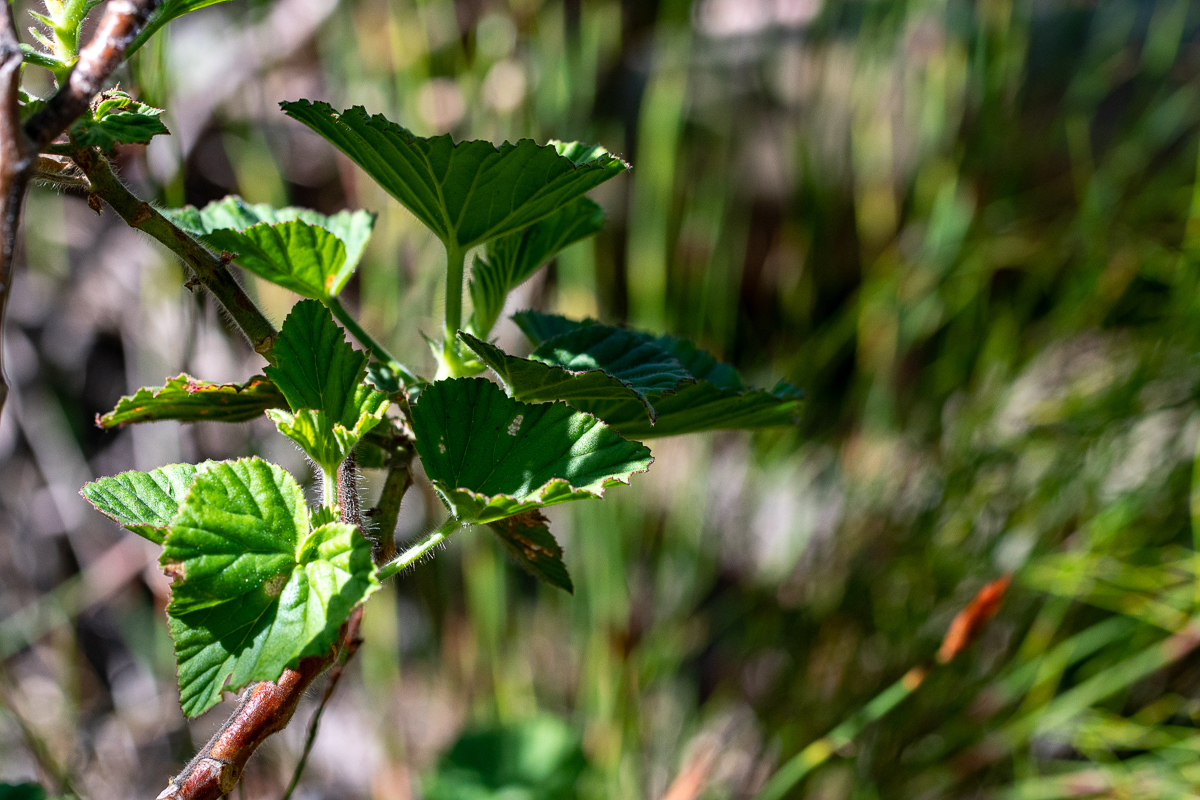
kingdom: Plantae
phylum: Tracheophyta
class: Magnoliopsida
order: Geraniales
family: Geraniaceae
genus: Pelargonium
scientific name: Pelargonium cucullatum
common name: Tree pelargonium
